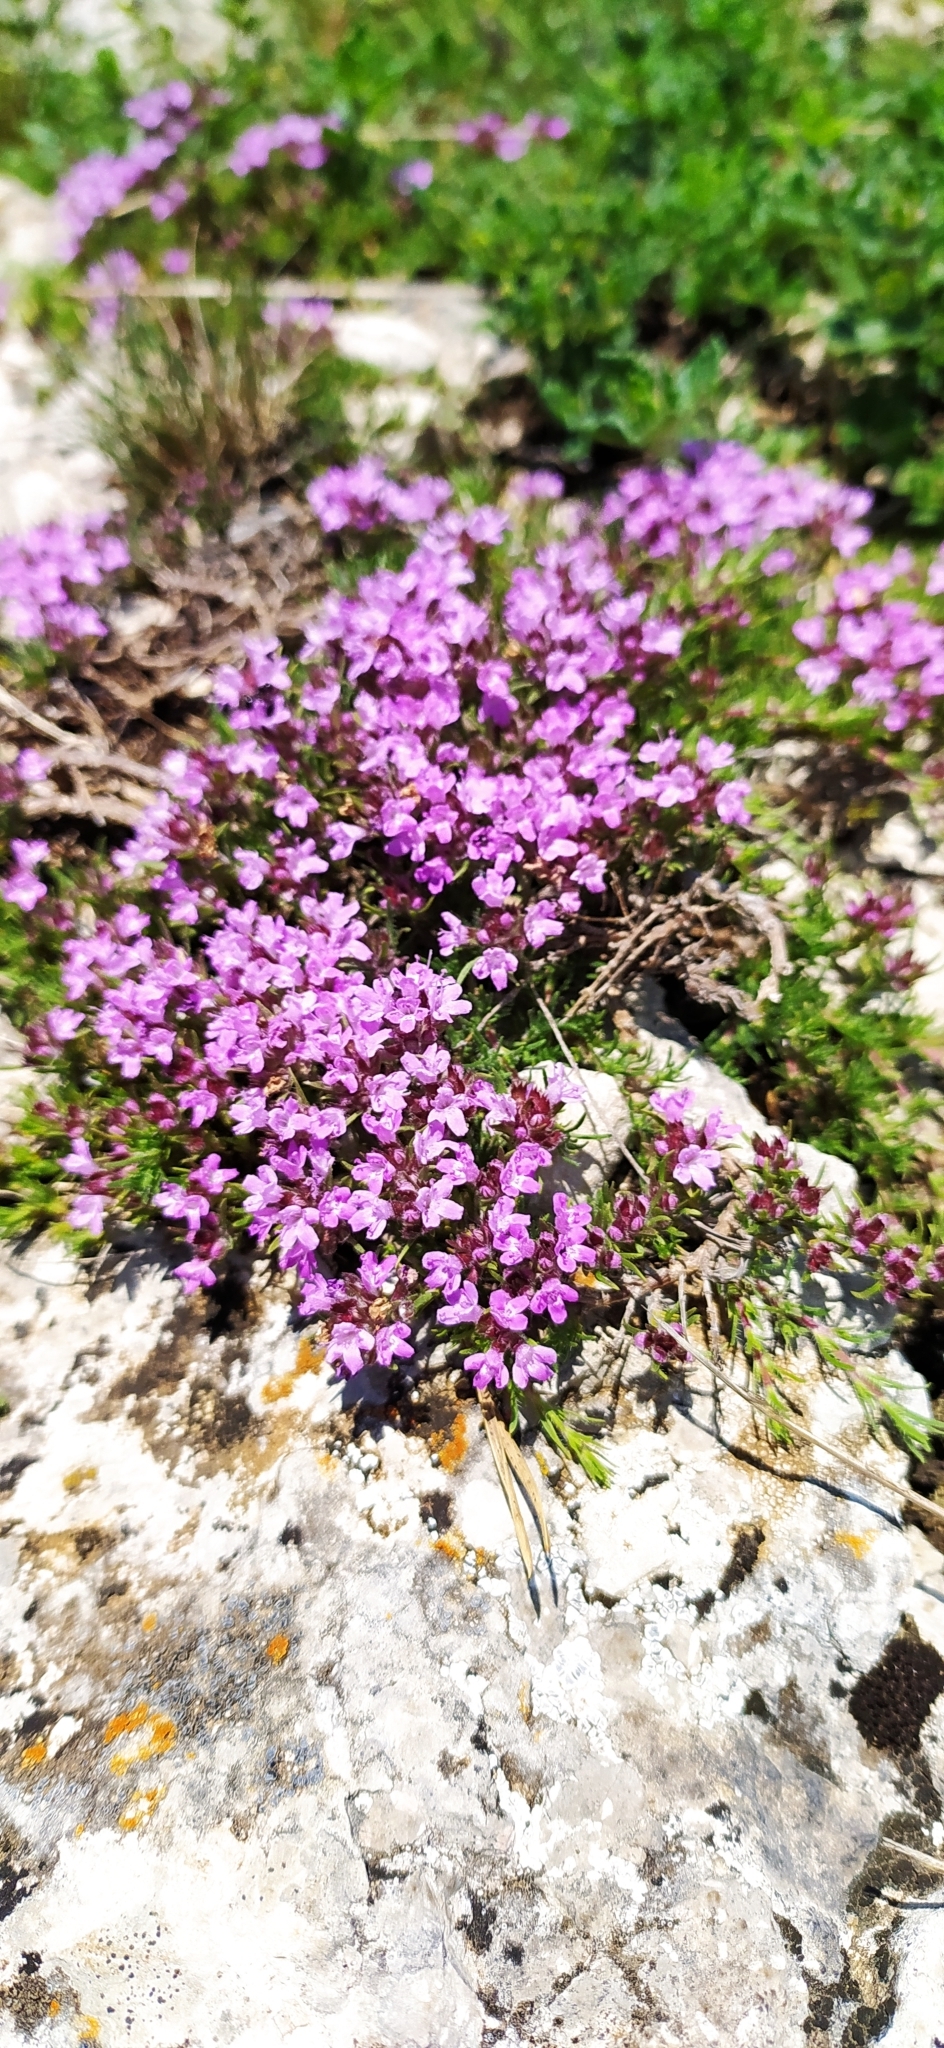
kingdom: Plantae
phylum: Tracheophyta
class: Magnoliopsida
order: Lamiales
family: Lamiaceae
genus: Thymus
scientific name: Thymus tauricus
